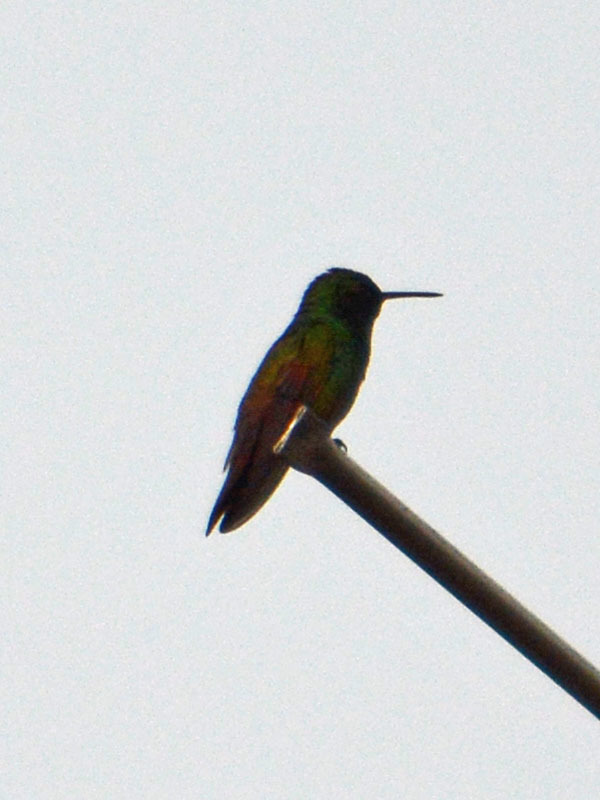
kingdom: Animalia
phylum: Chordata
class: Aves
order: Apodiformes
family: Trochilidae
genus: Saucerottia
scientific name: Saucerottia beryllina
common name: Berylline hummingbird
